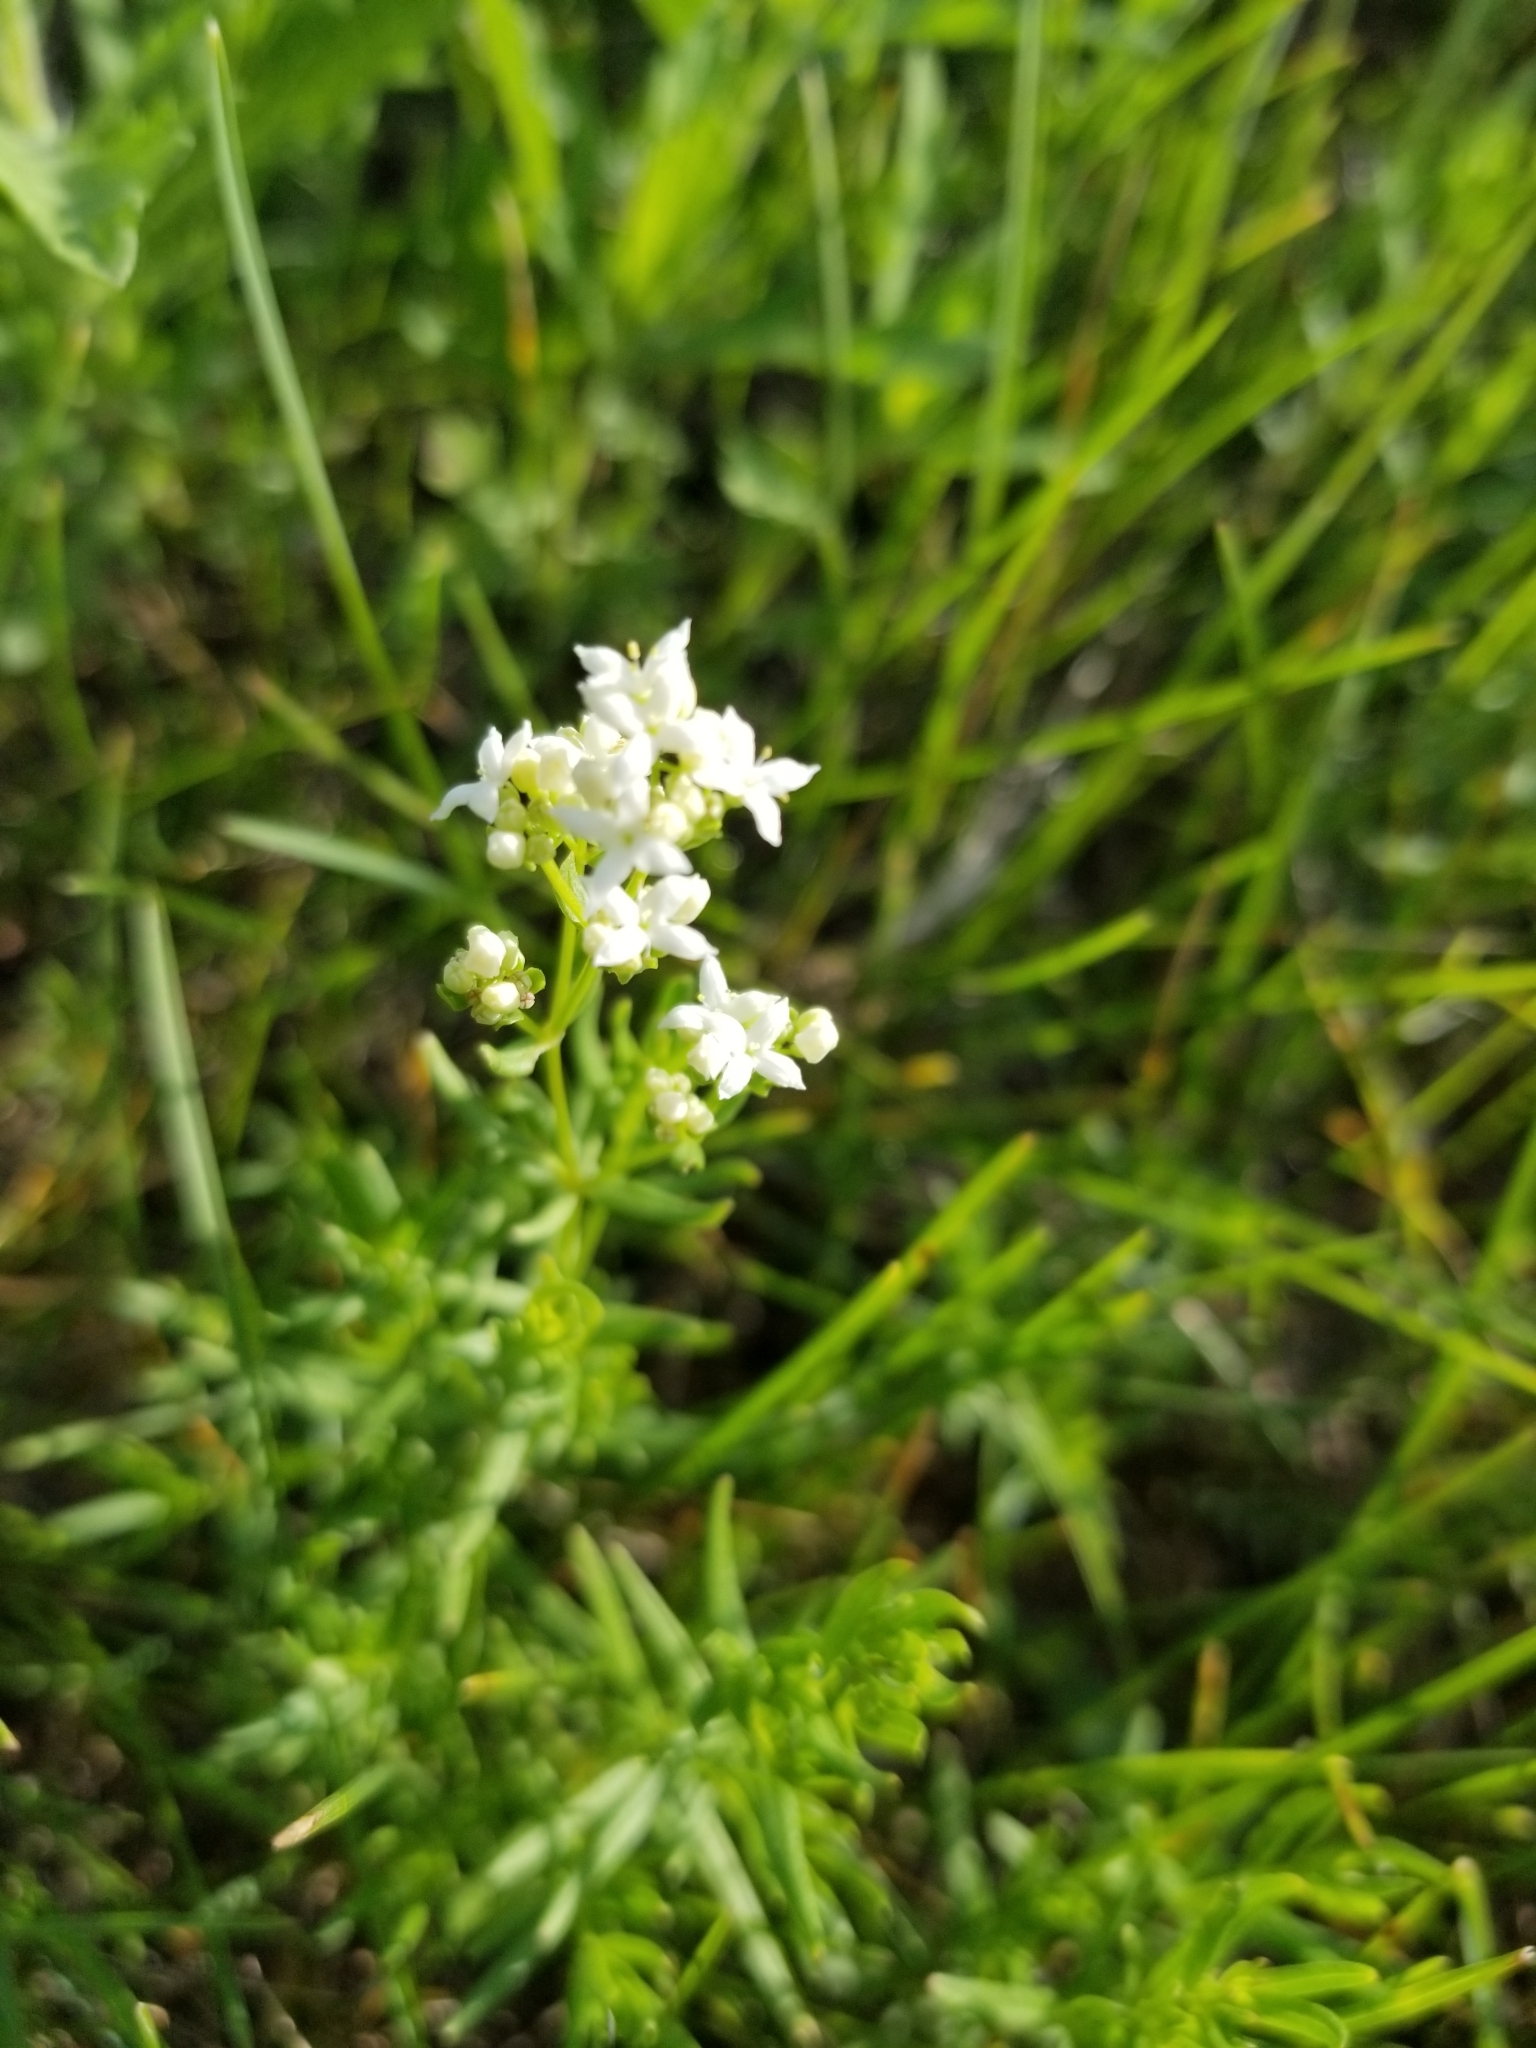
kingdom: Plantae
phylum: Tracheophyta
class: Magnoliopsida
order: Gentianales
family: Rubiaceae
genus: Galium
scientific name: Galium boreale
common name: Northern bedstraw
